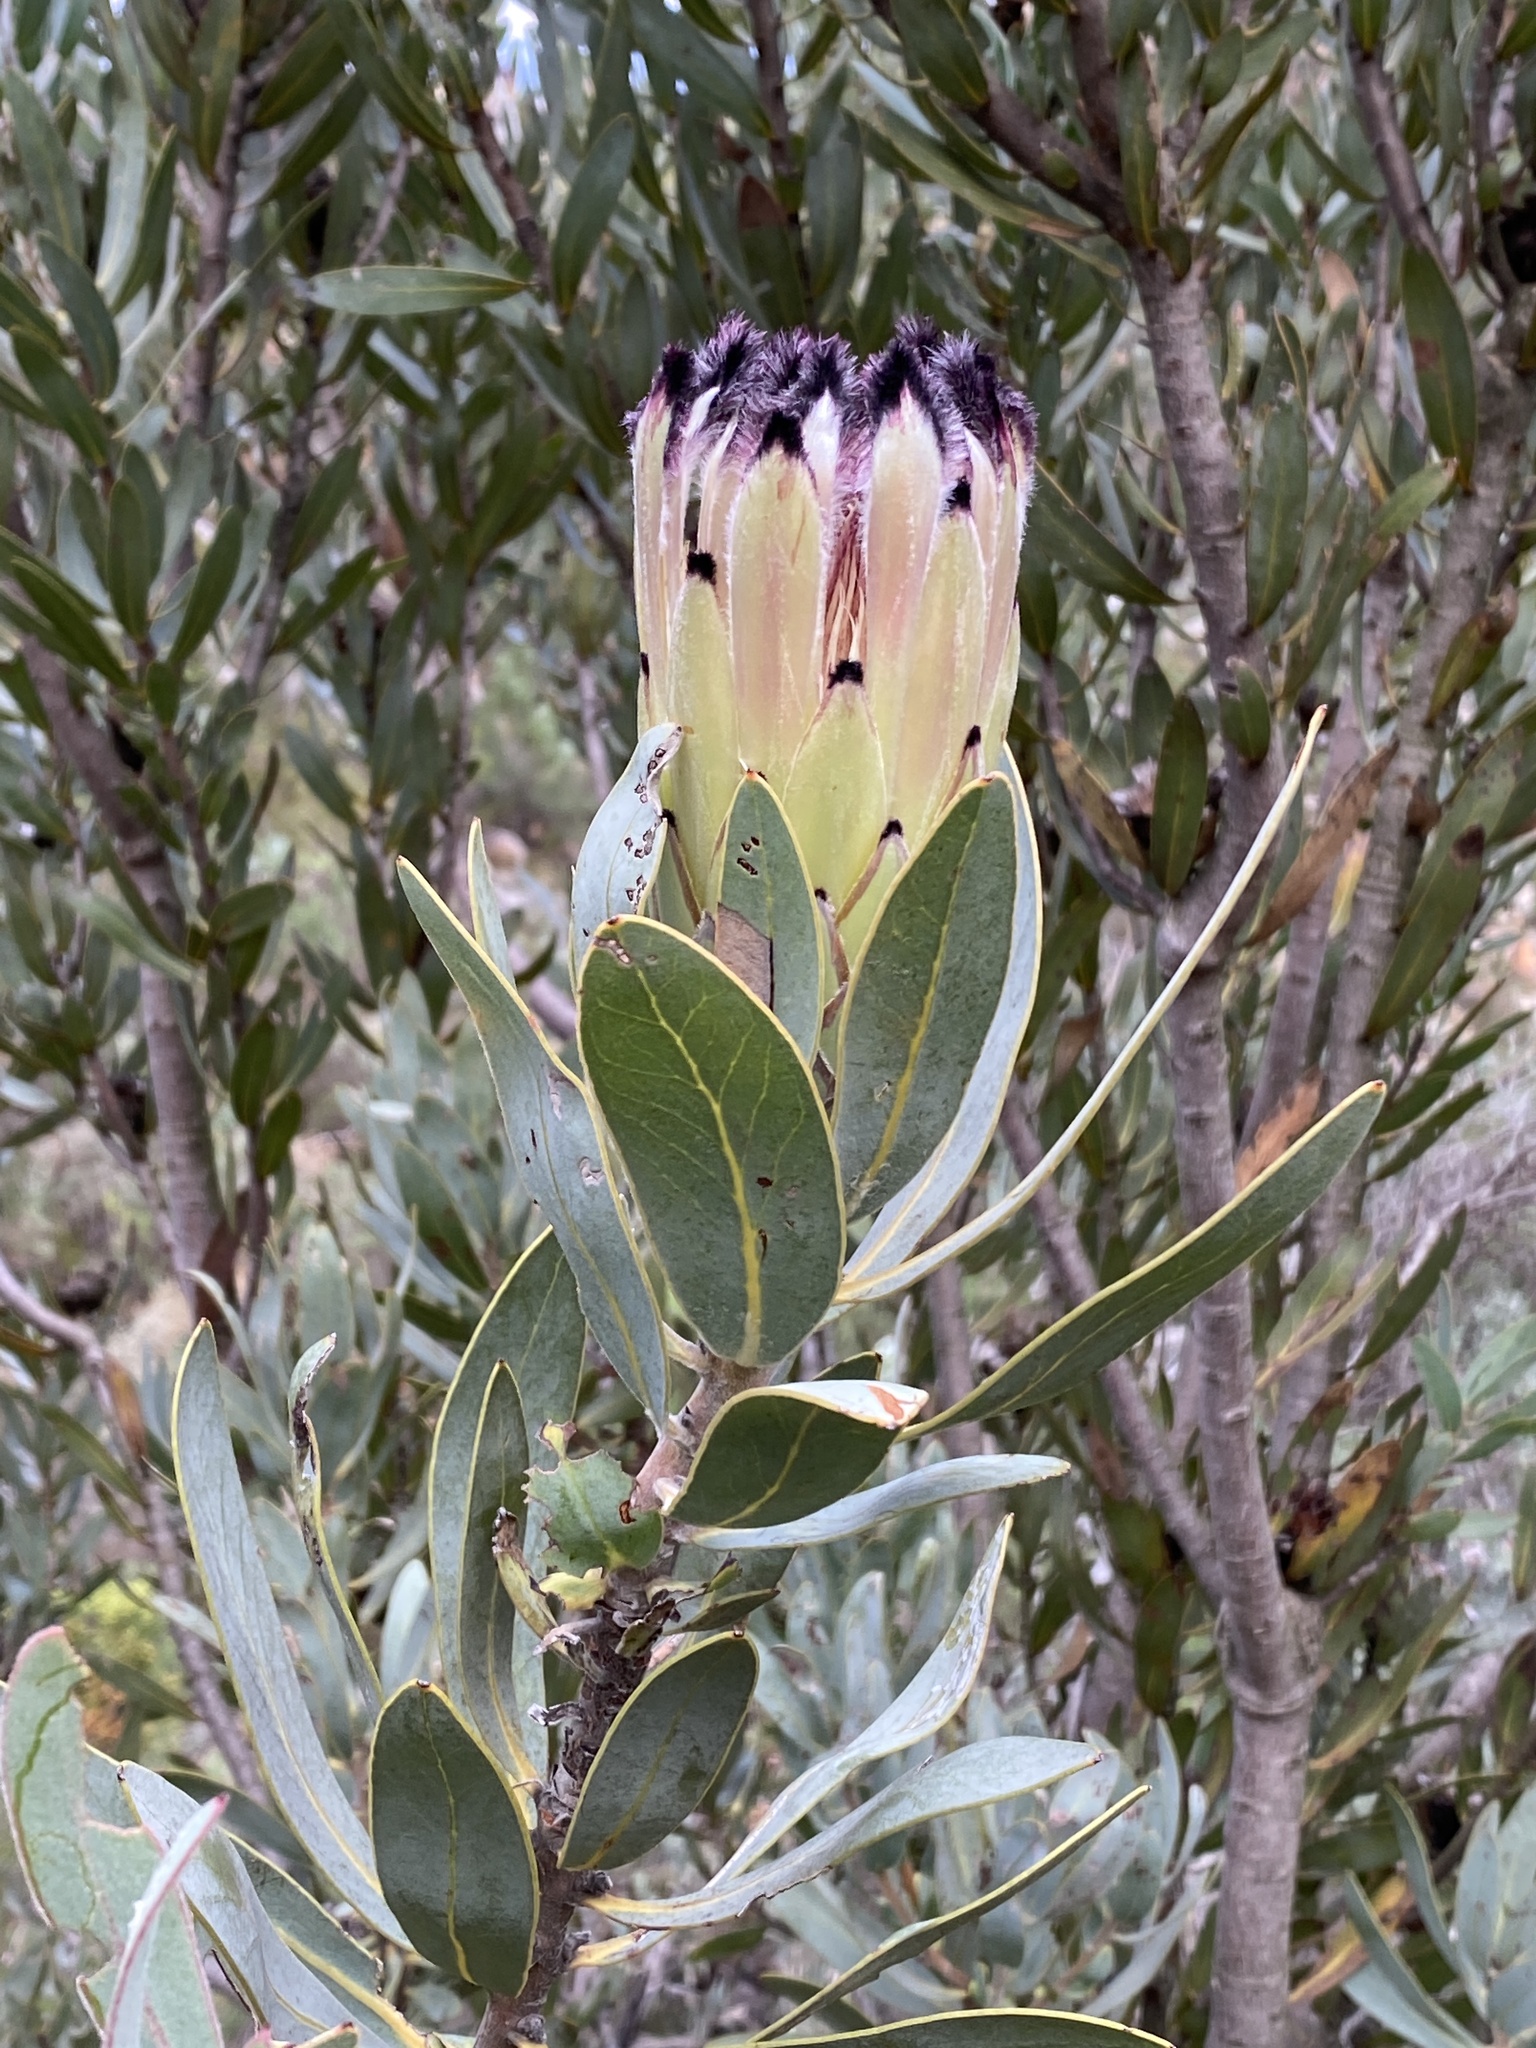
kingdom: Plantae
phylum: Tracheophyta
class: Magnoliopsida
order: Proteales
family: Proteaceae
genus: Protea
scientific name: Protea laurifolia
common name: Grey-leaf sugarbsh
